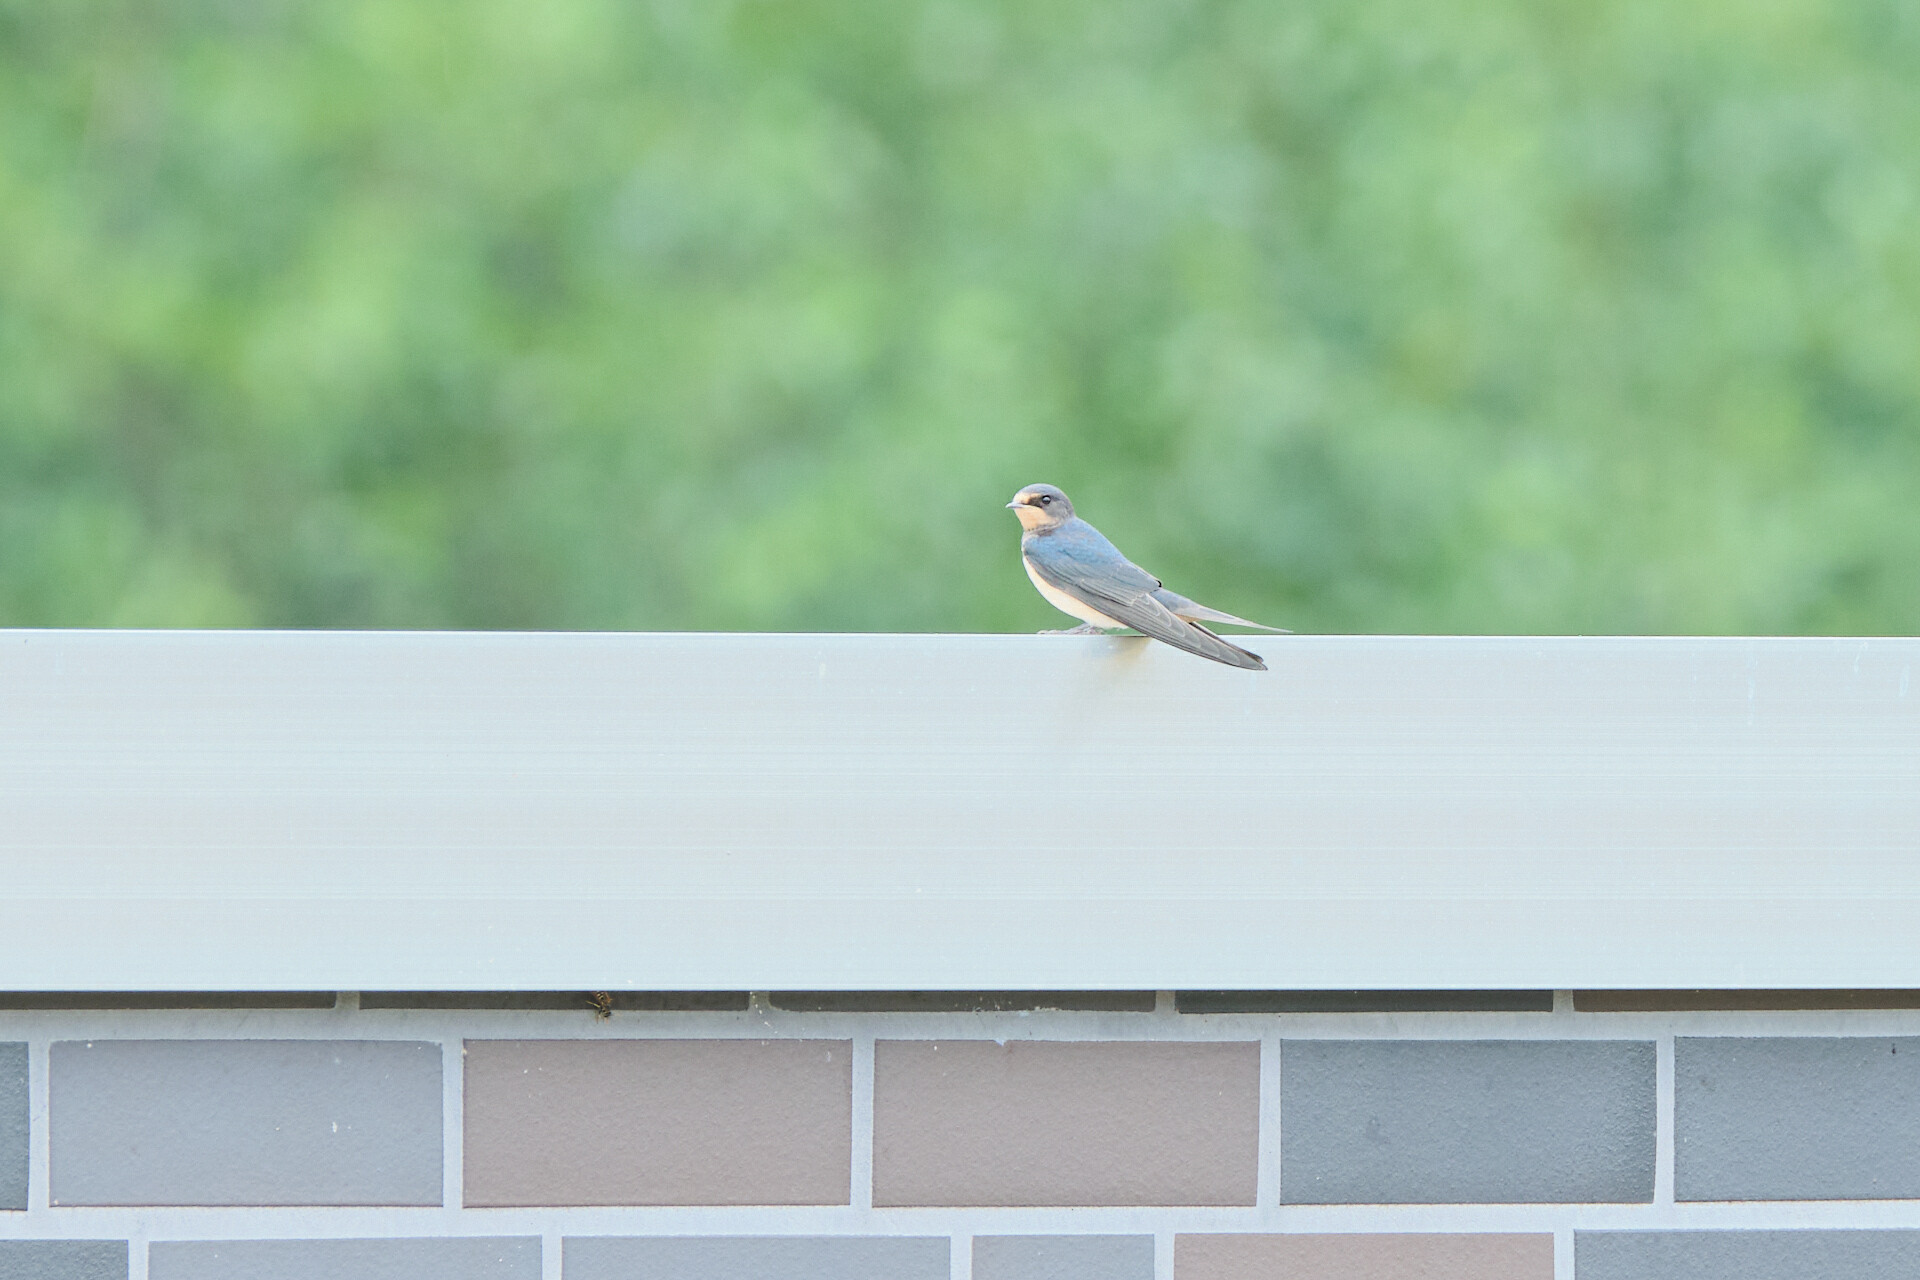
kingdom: Animalia
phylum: Chordata
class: Aves
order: Passeriformes
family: Hirundinidae
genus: Hirundo
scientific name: Hirundo rustica
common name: Barn swallow
